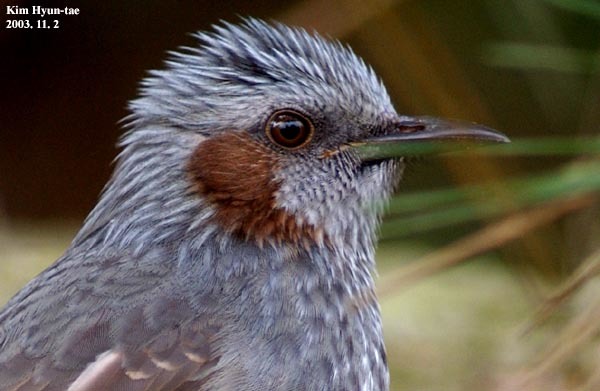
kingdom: Animalia
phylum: Chordata
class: Aves
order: Passeriformes
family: Pycnonotidae
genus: Hypsipetes
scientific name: Hypsipetes amaurotis
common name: Brown-eared bulbul
